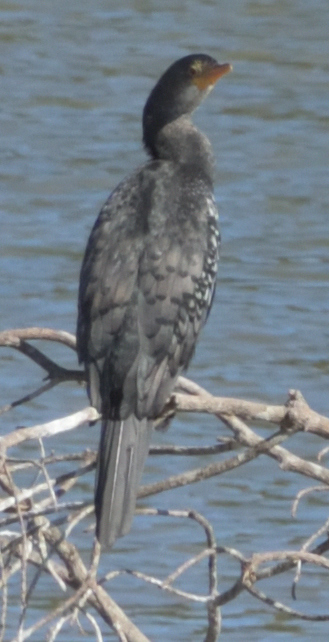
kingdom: Animalia
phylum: Chordata
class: Aves
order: Suliformes
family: Phalacrocoracidae
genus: Microcarbo
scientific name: Microcarbo africanus
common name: Long-tailed cormorant
